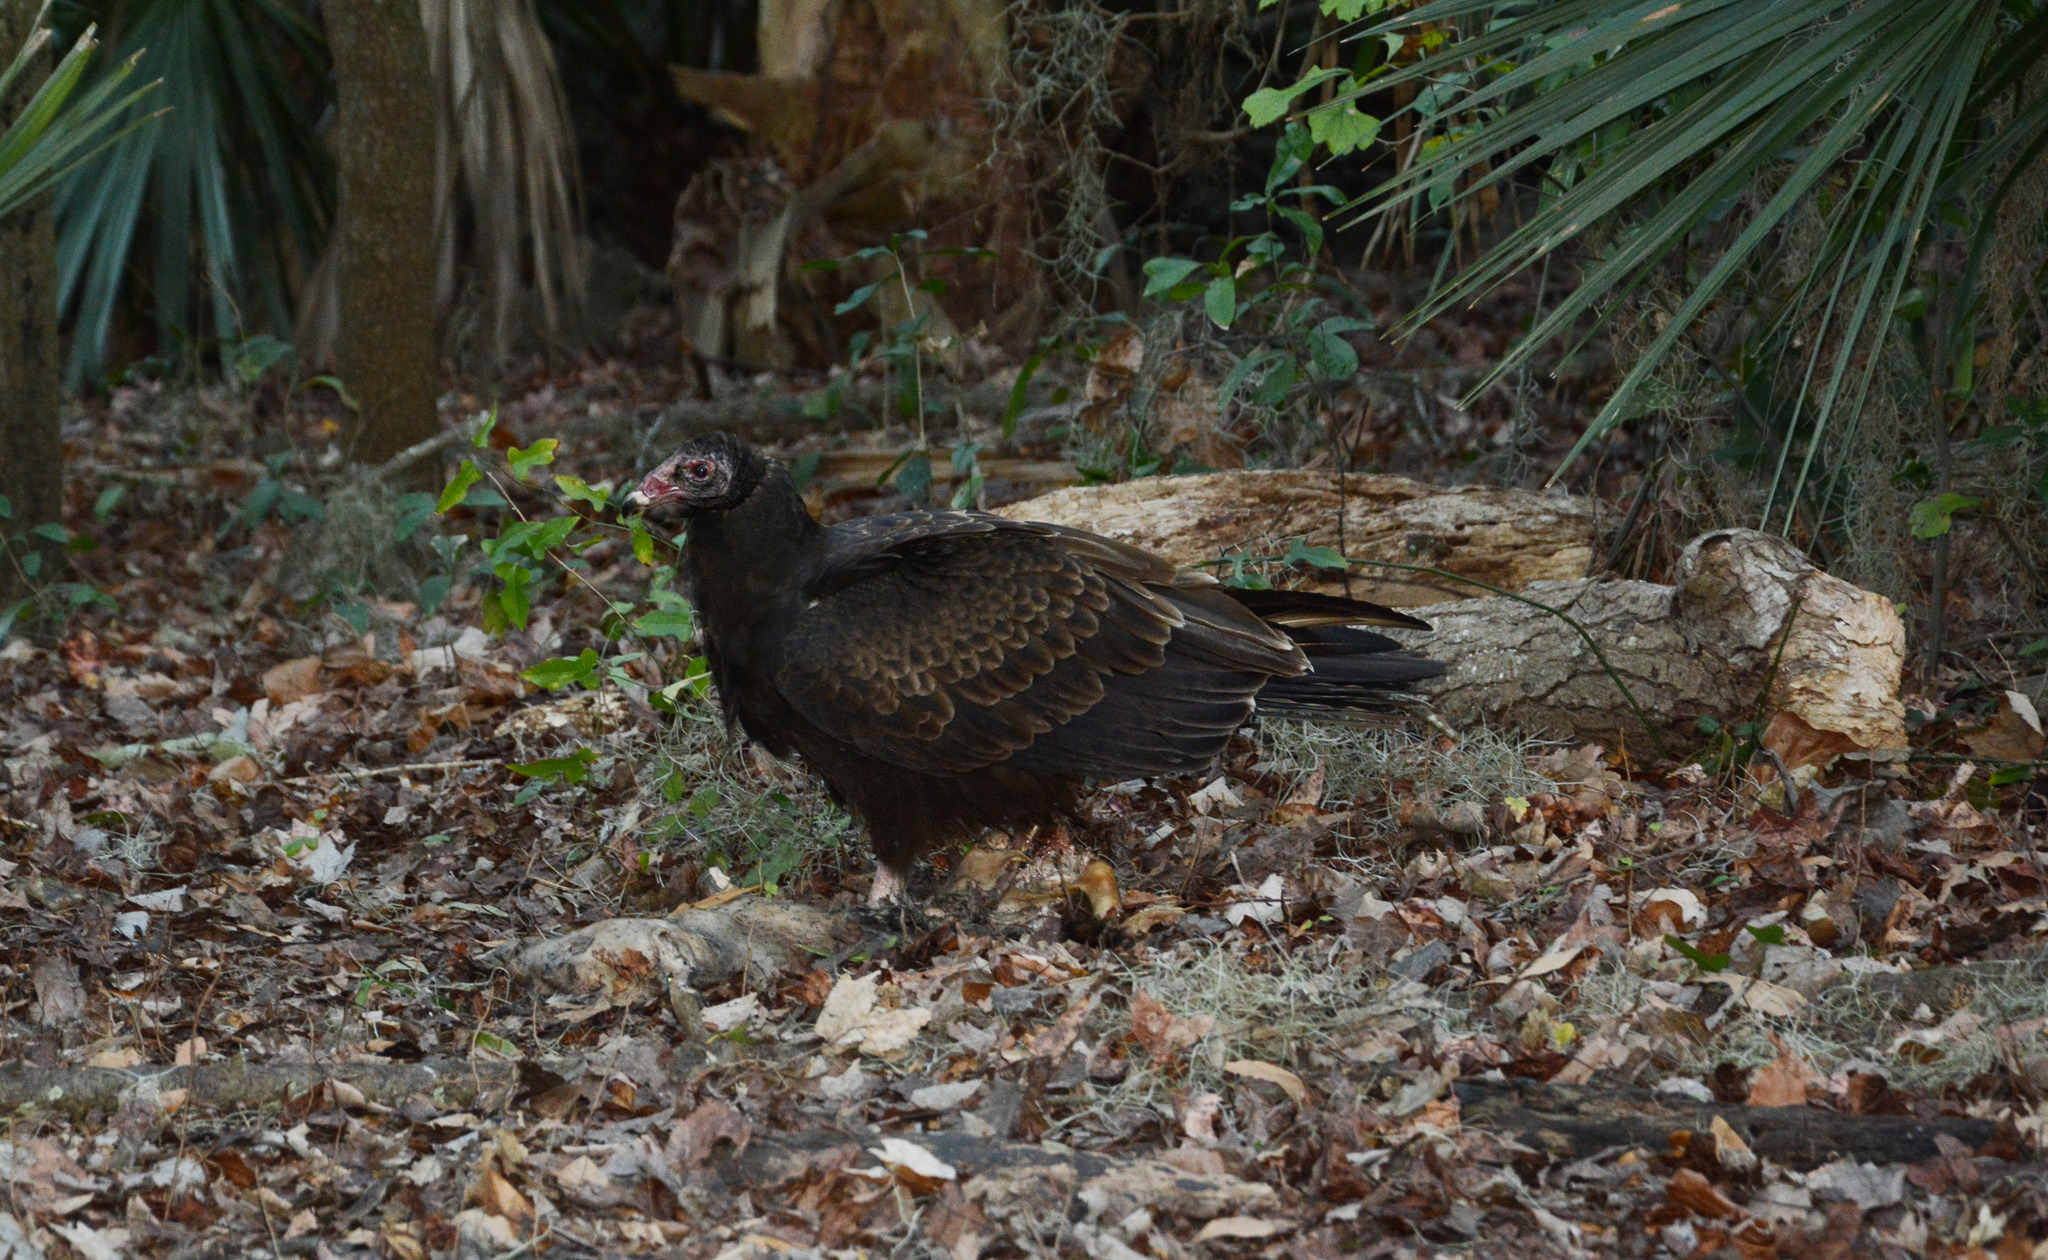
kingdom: Animalia
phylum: Chordata
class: Aves
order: Accipitriformes
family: Cathartidae
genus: Cathartes
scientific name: Cathartes aura
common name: Turkey vulture
